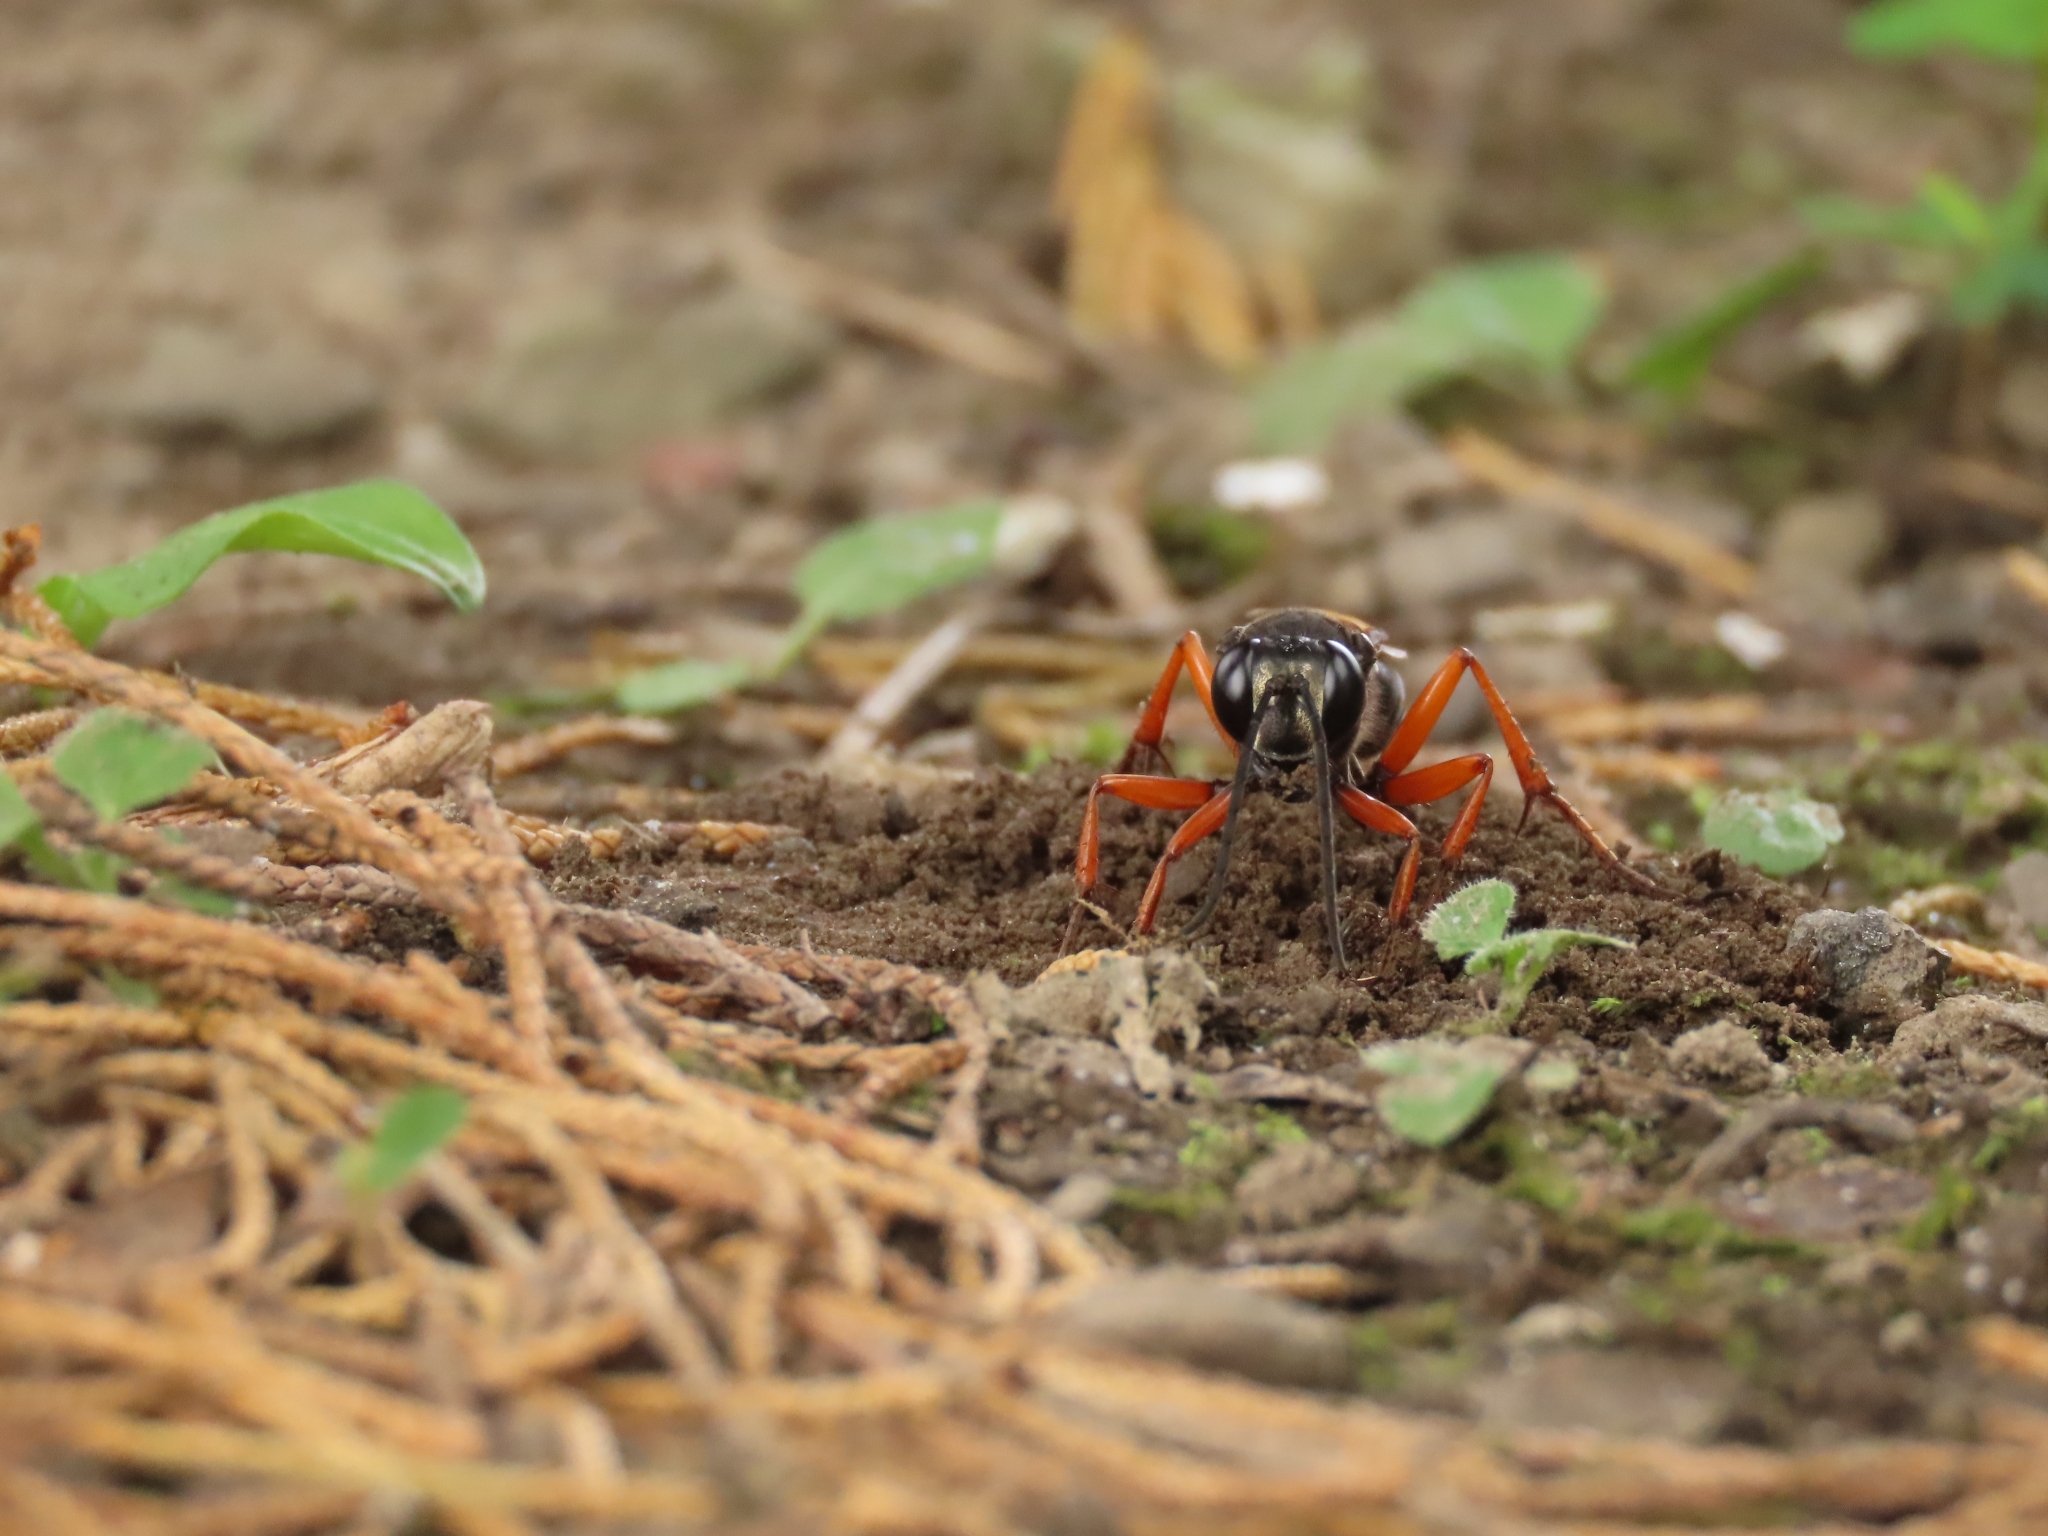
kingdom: Animalia
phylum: Arthropoda
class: Insecta
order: Hymenoptera
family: Sphecidae
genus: Sphex
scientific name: Sphex subtruncatus
